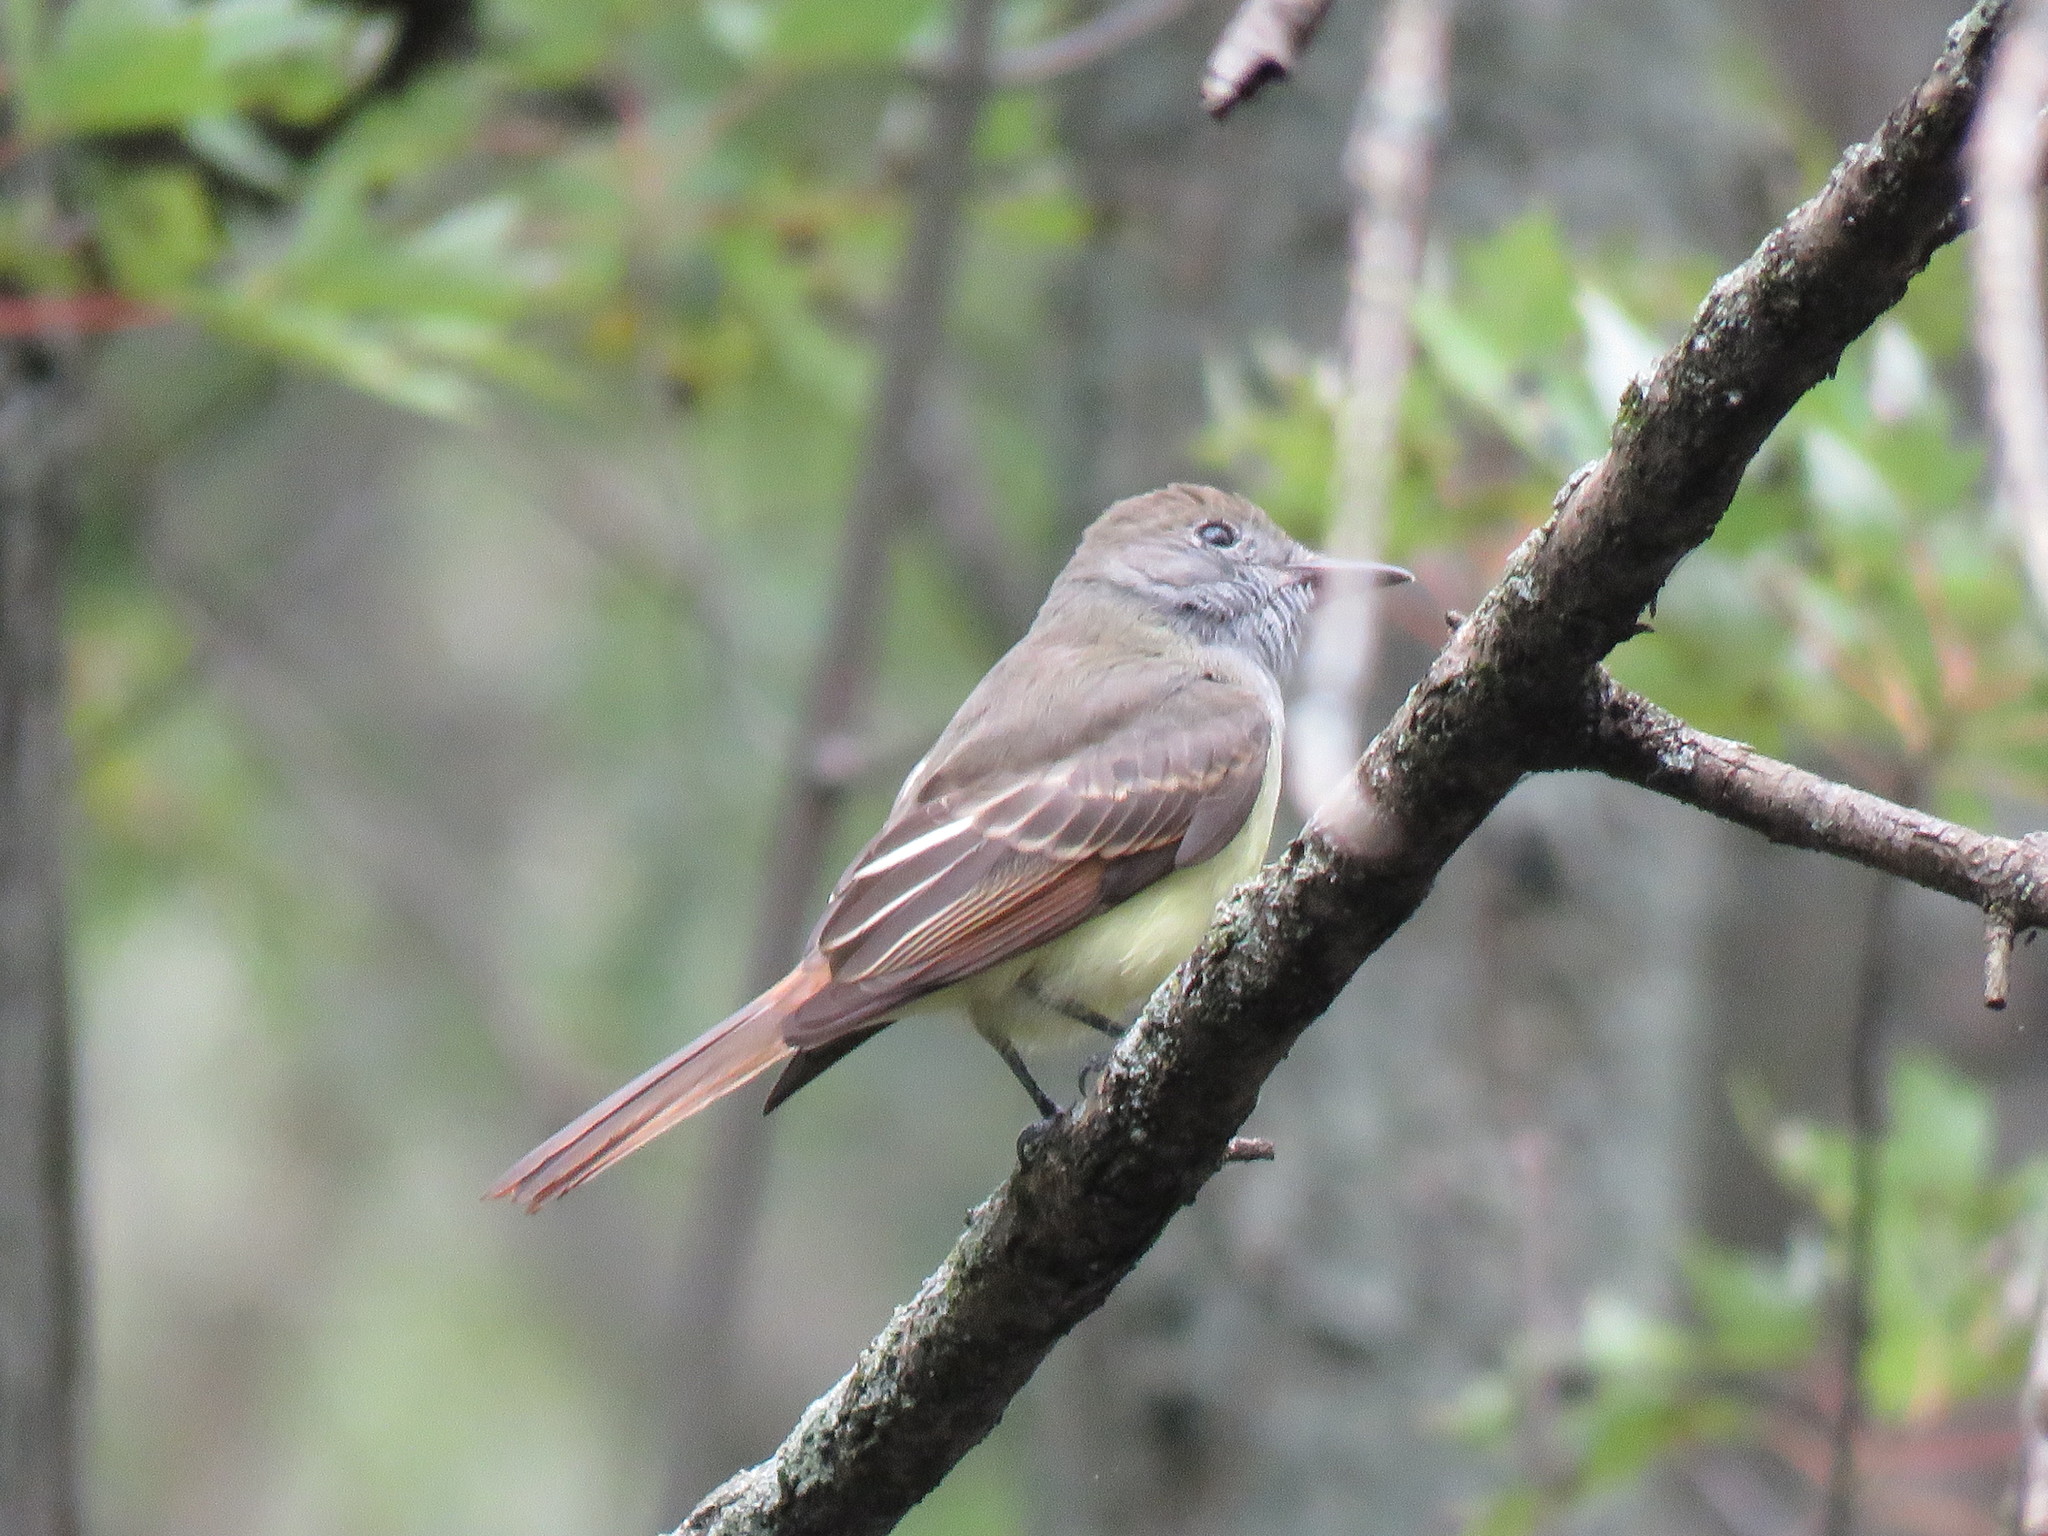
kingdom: Animalia
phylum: Chordata
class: Aves
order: Passeriformes
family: Tyrannidae
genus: Myiarchus
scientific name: Myiarchus crinitus
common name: Great crested flycatcher
